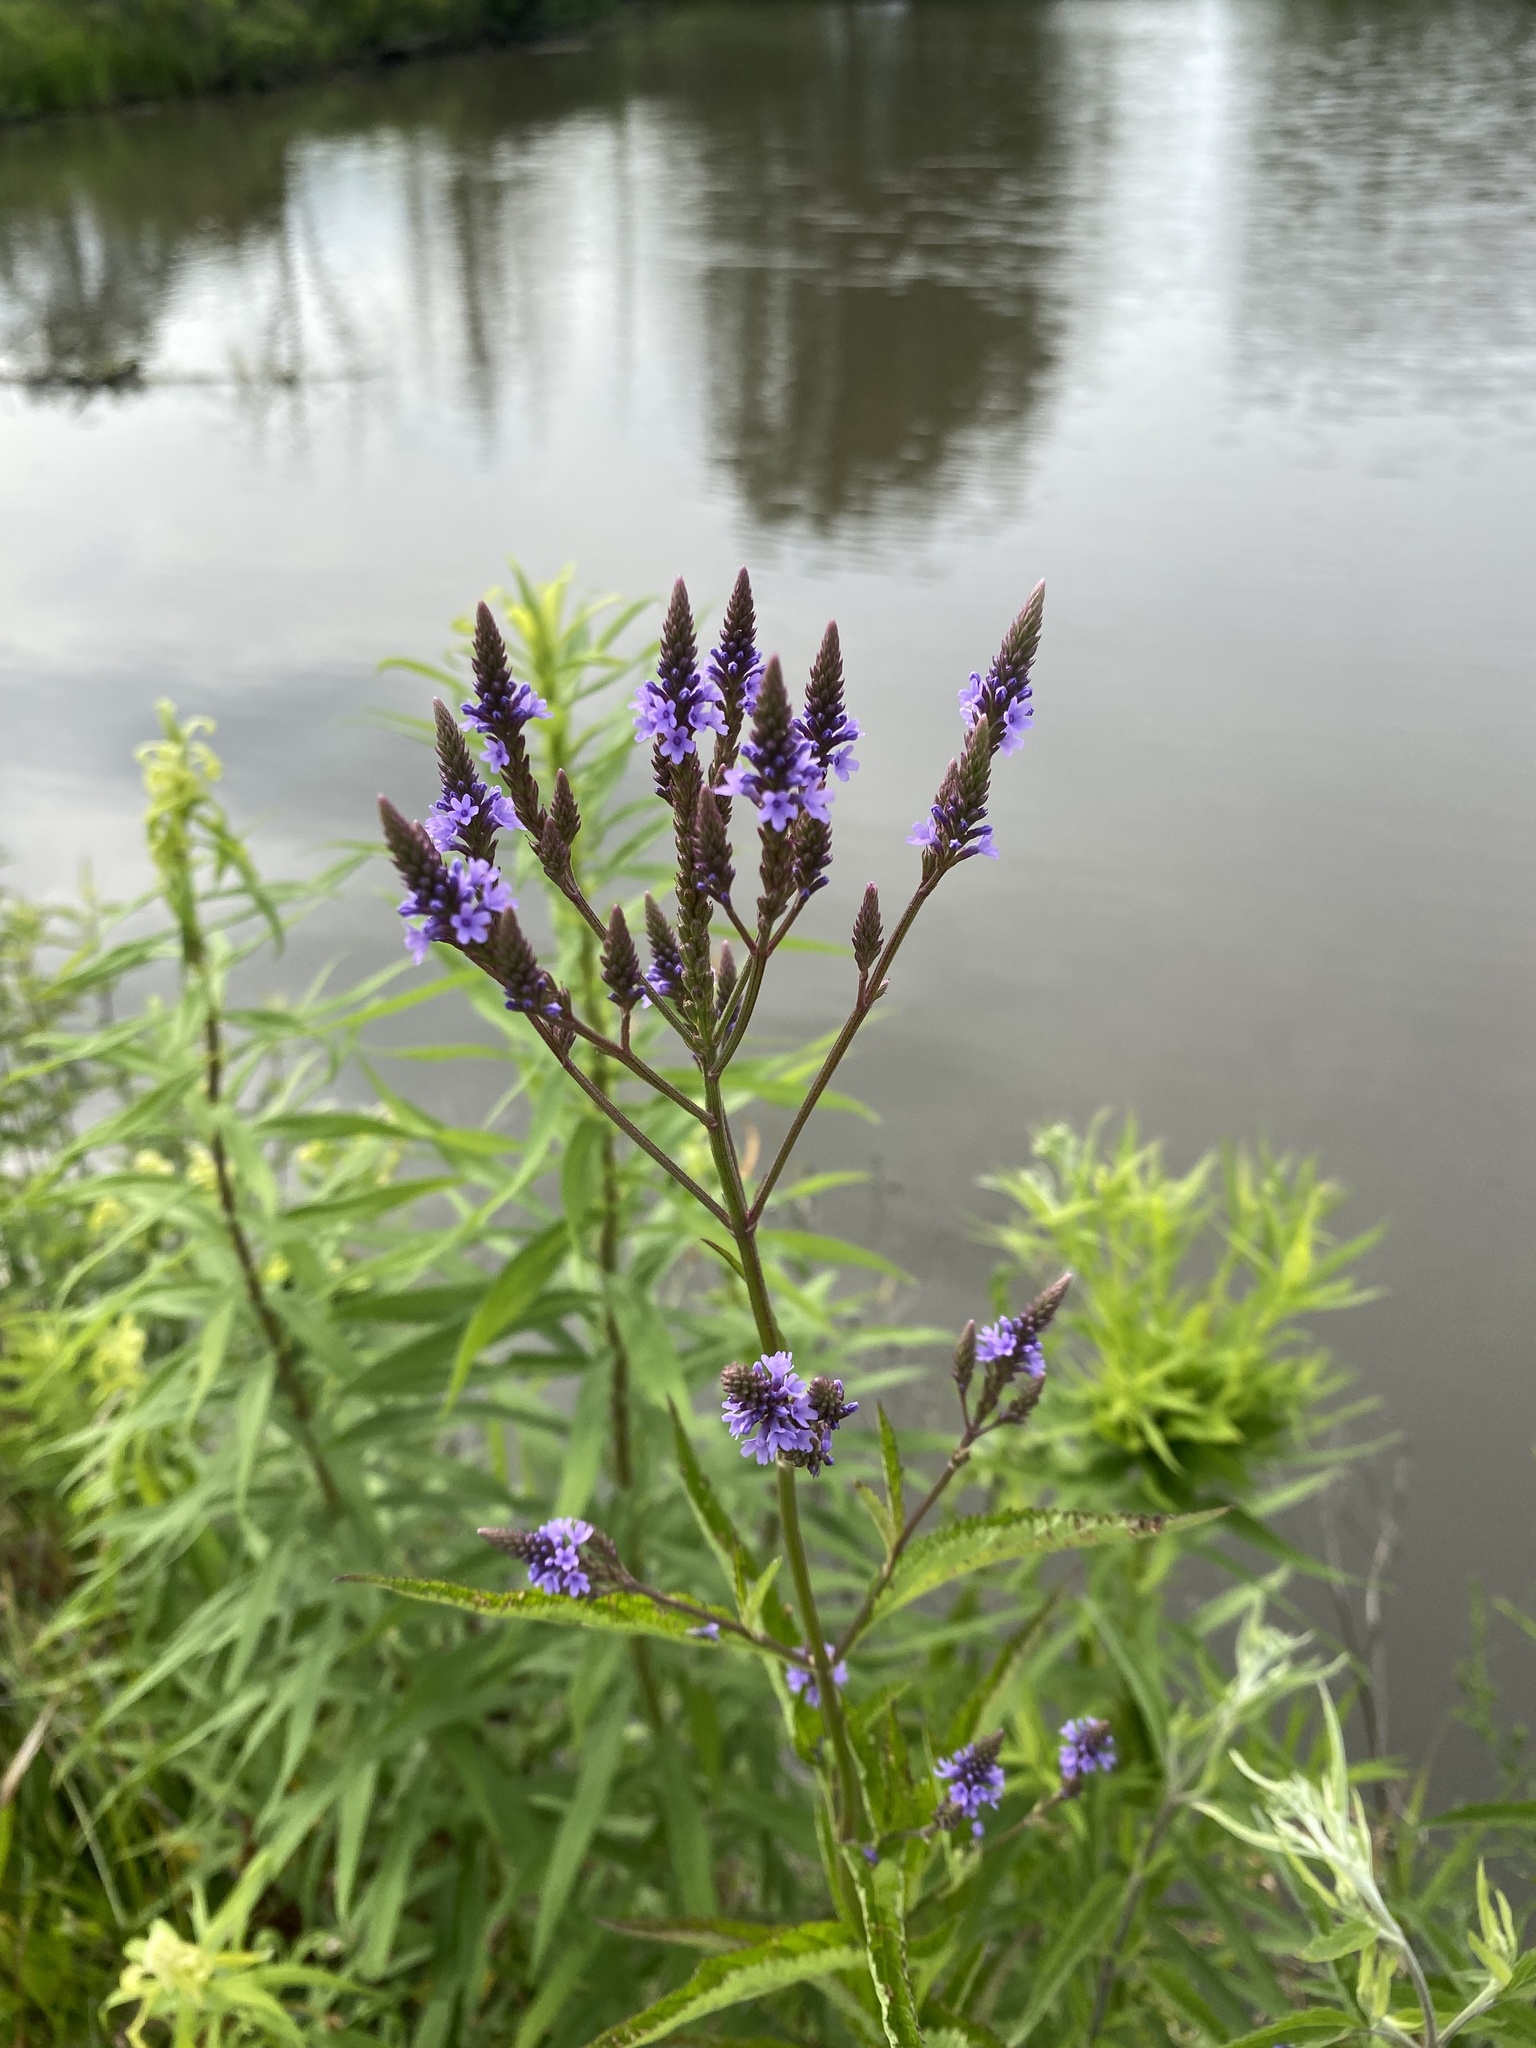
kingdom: Plantae
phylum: Tracheophyta
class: Magnoliopsida
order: Lamiales
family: Verbenaceae
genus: Verbena
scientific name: Verbena hastata
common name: American blue vervain
